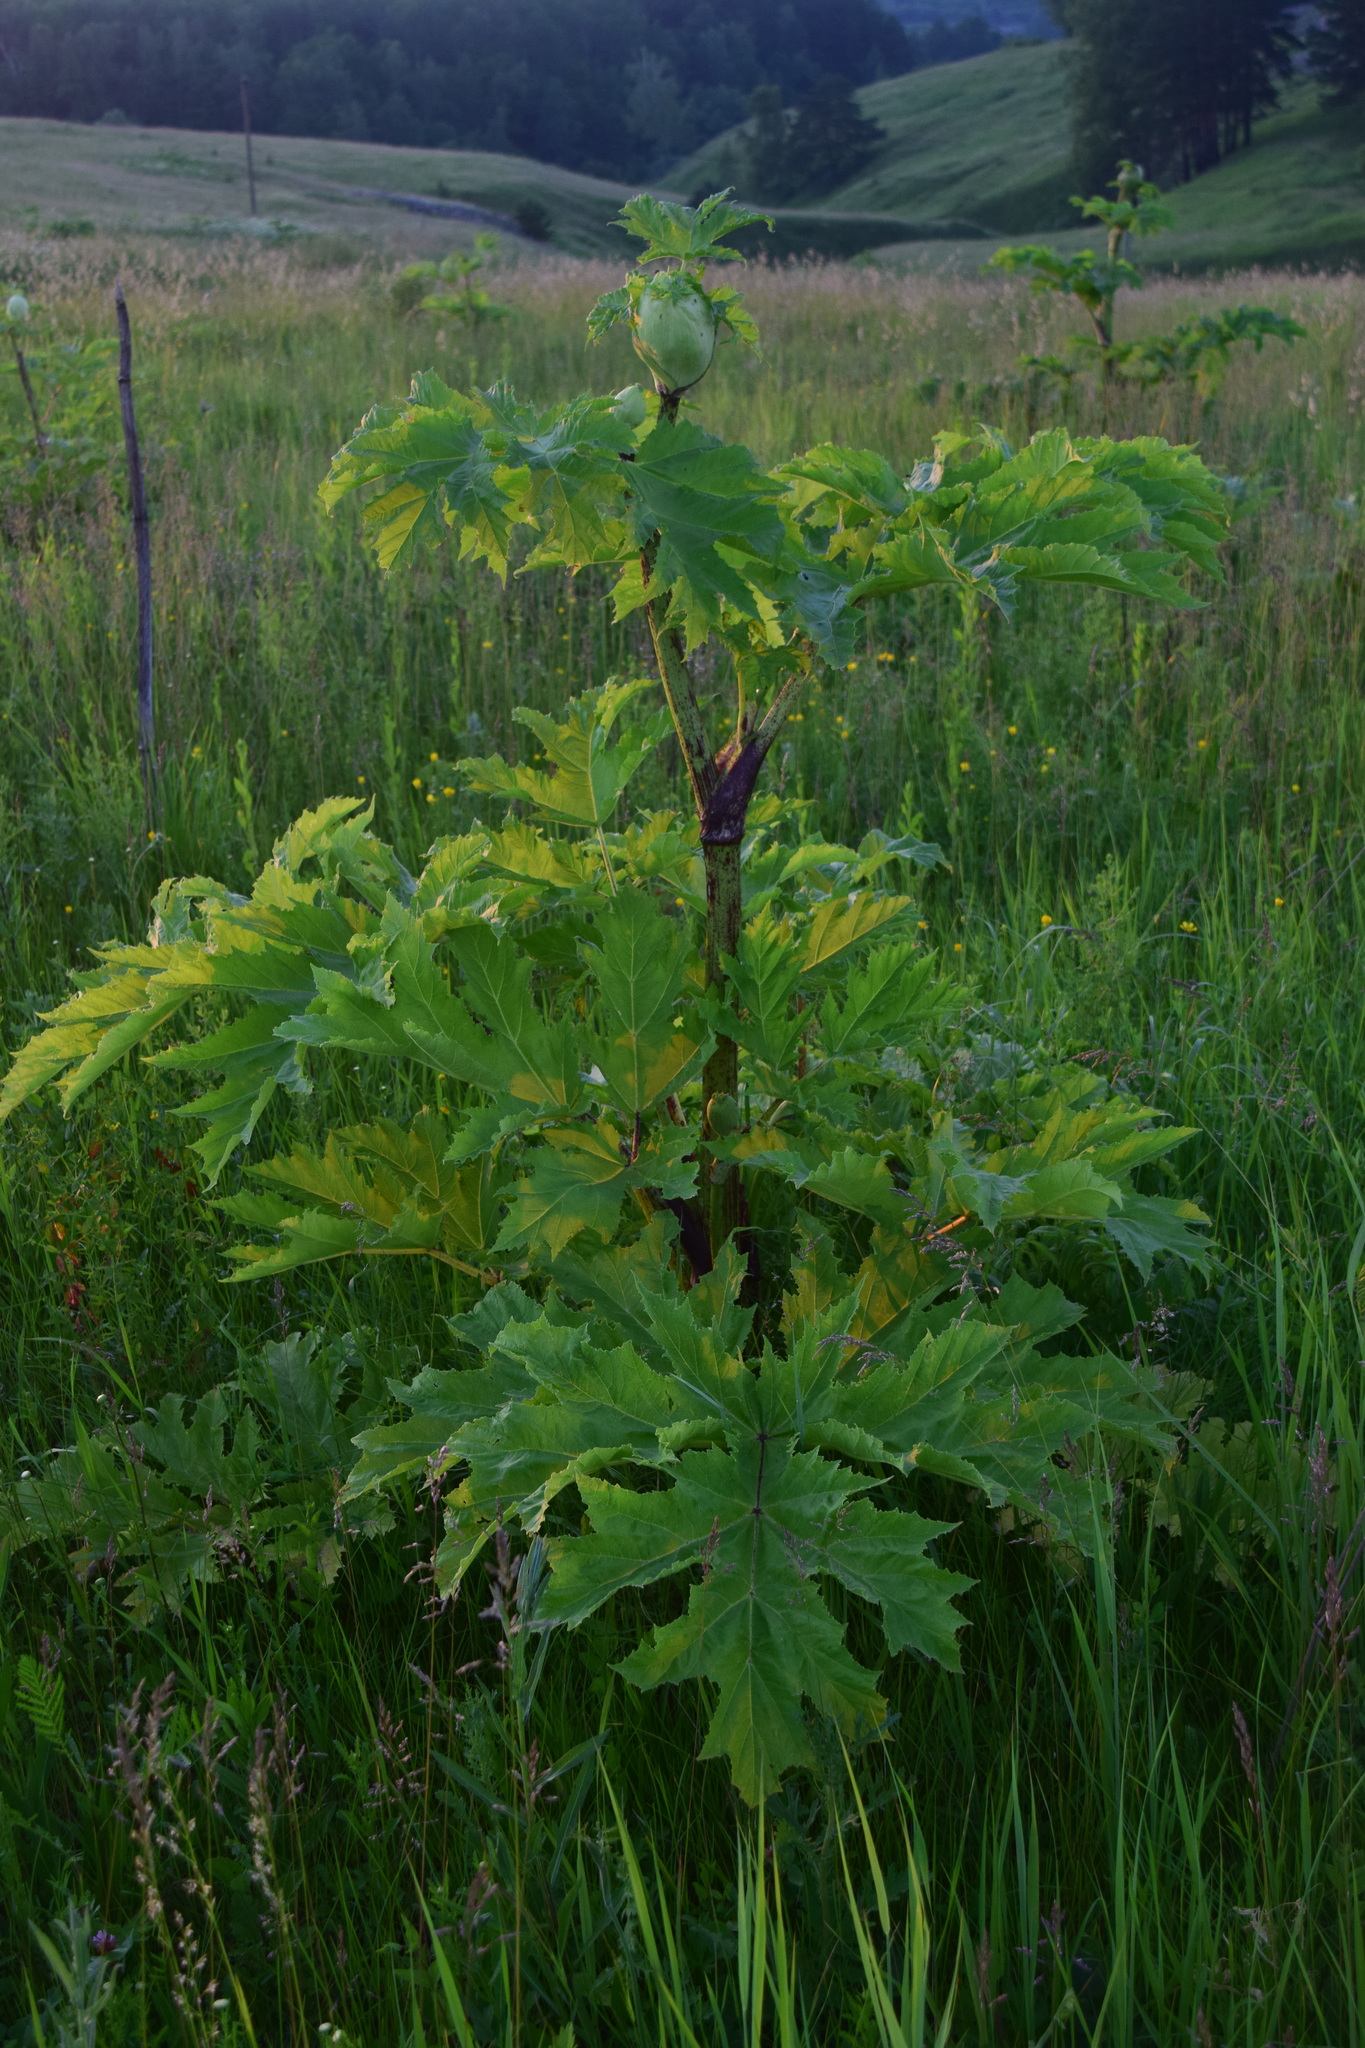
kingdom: Plantae
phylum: Tracheophyta
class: Magnoliopsida
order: Apiales
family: Apiaceae
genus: Heracleum
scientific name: Heracleum sosnowskyi
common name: Sosnowsky's hogweed
